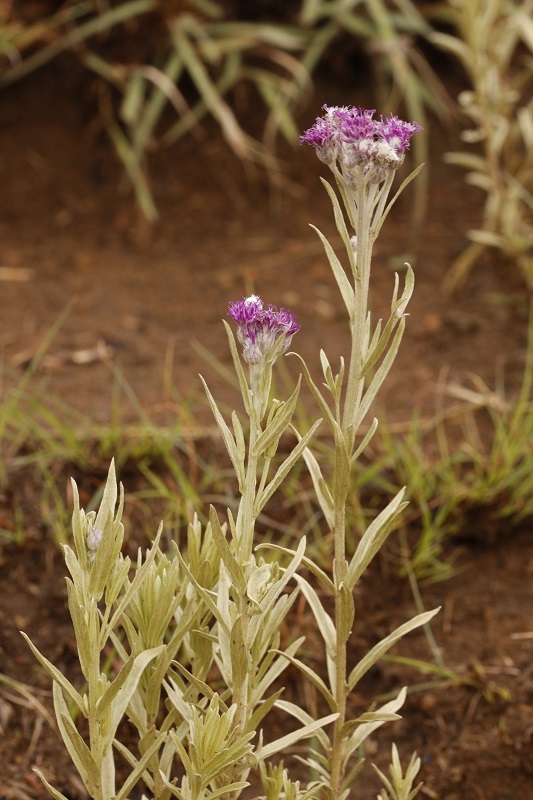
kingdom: Plantae
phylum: Tracheophyta
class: Magnoliopsida
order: Asterales
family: Asteraceae
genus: Hilliardiella
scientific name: Hilliardiella aristata
